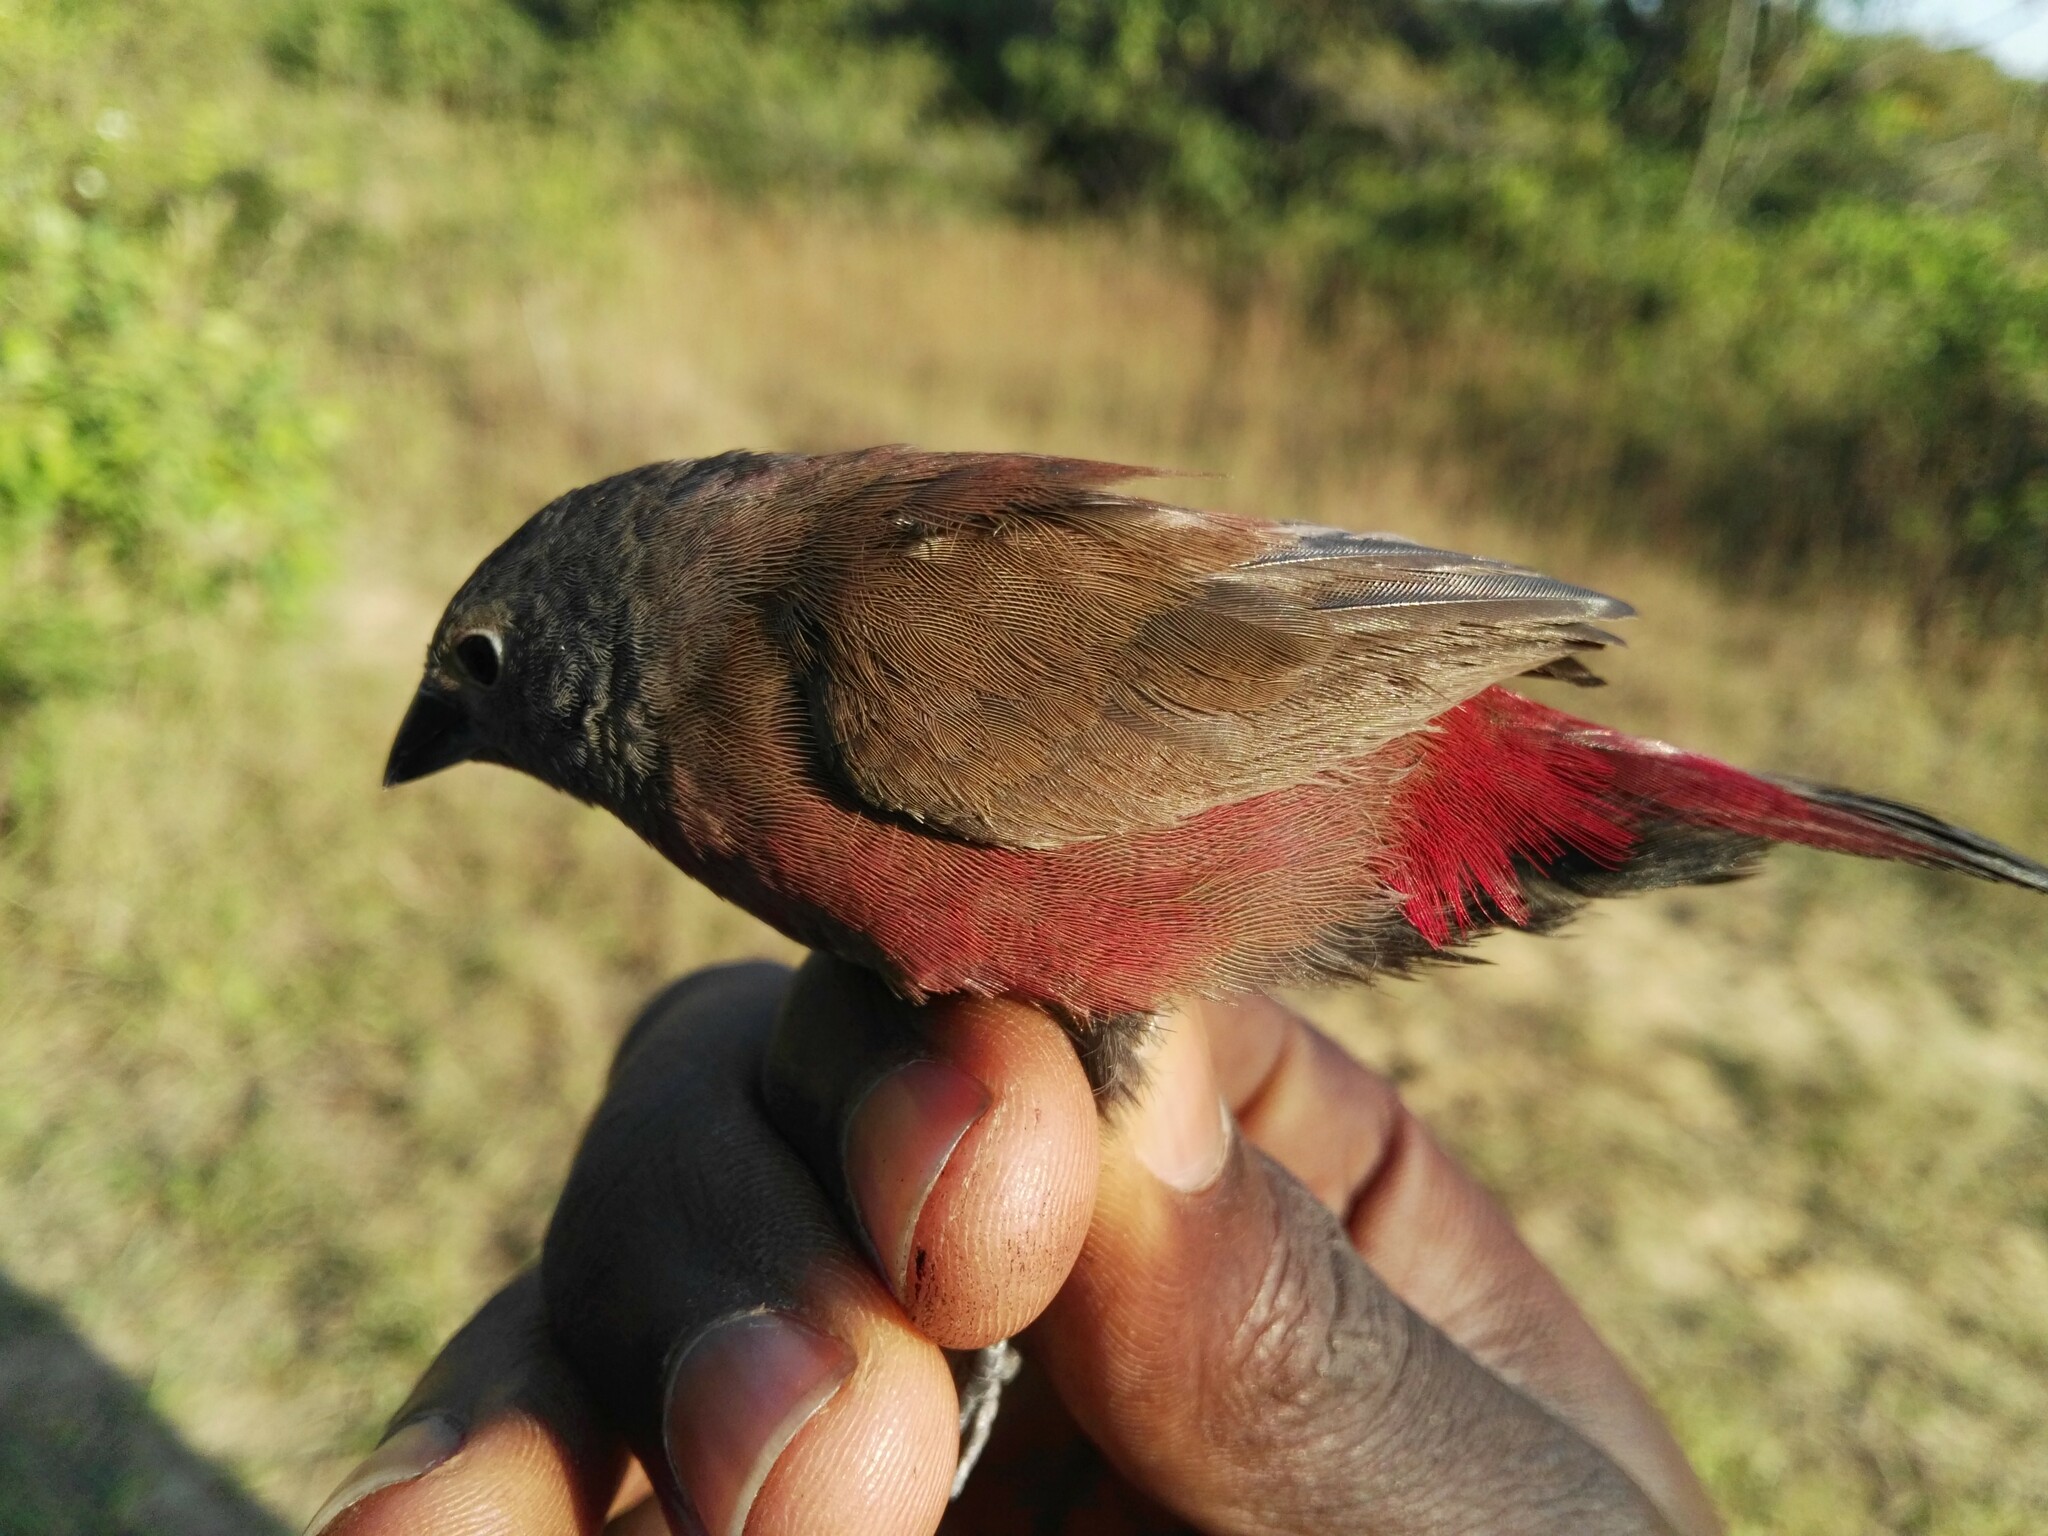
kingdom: Animalia
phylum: Chordata
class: Aves
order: Passeriformes
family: Estrildidae
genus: Lagonosticta
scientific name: Lagonosticta sanguinodorsalis
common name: Rock firefinch
